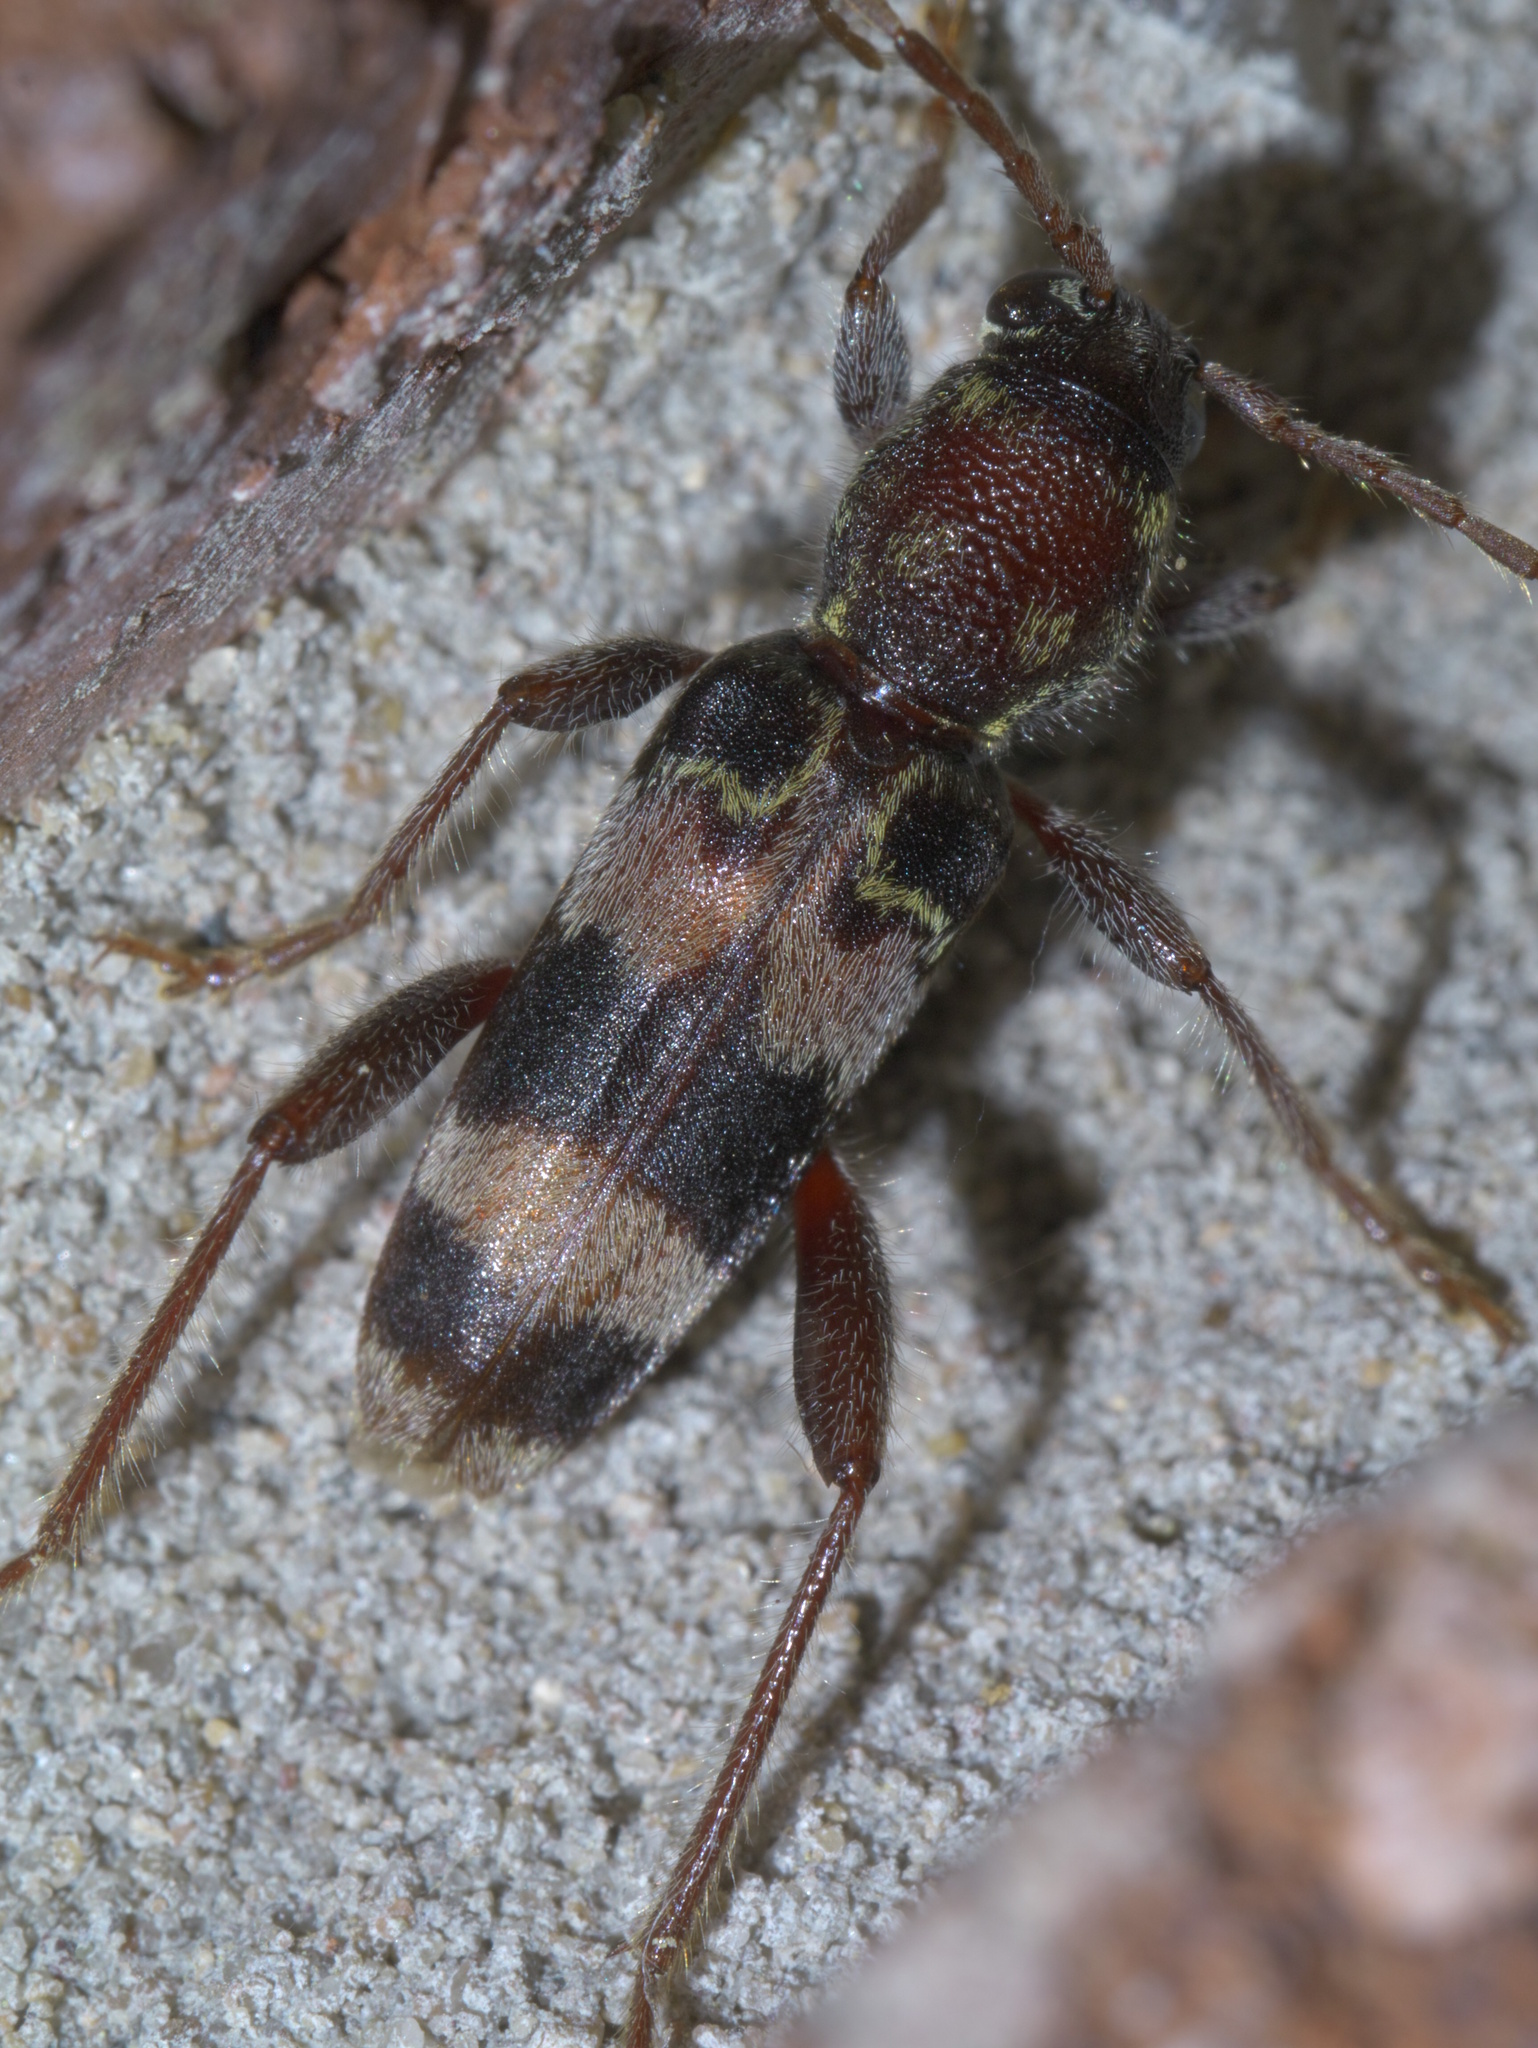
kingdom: Animalia
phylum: Arthropoda
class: Insecta
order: Coleoptera
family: Cerambycidae
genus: Xylotrechus
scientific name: Xylotrechus colonus
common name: Long-horned beetle
